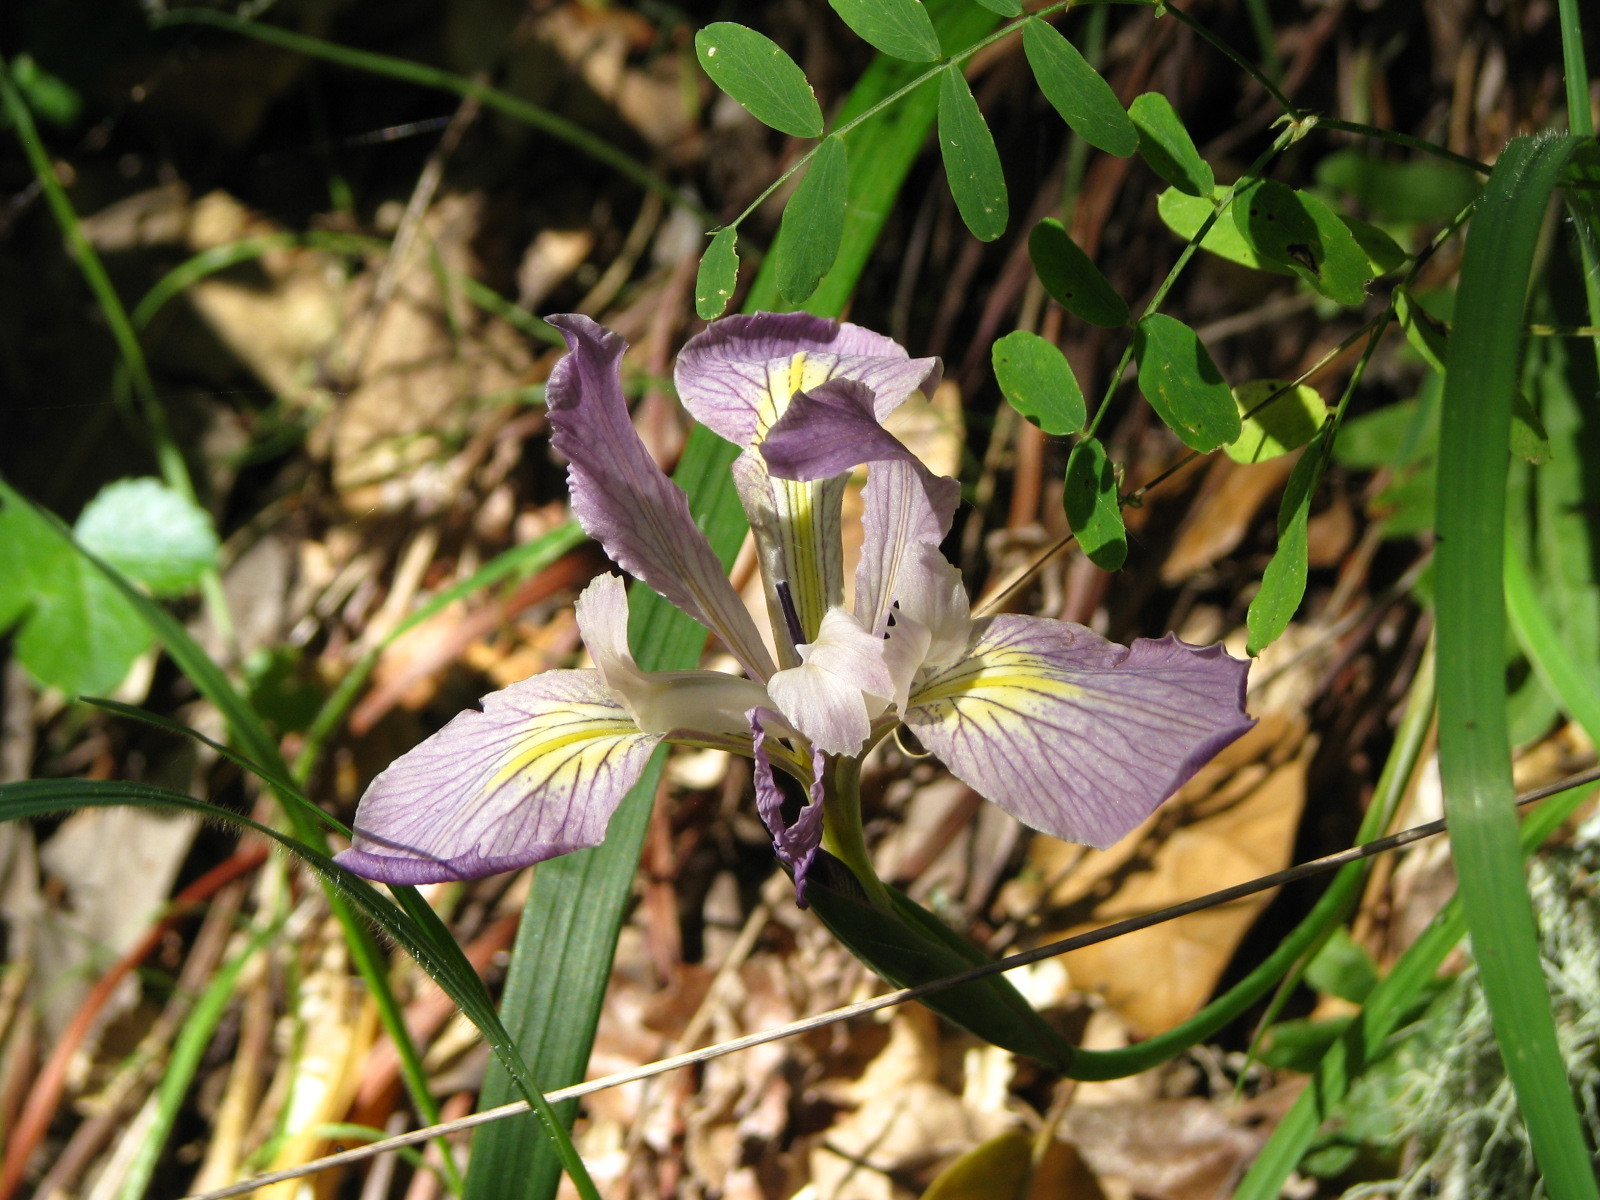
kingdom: Plantae
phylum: Tracheophyta
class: Liliopsida
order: Asparagales
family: Iridaceae
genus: Iris
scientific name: Iris douglasiana
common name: Marin iris
